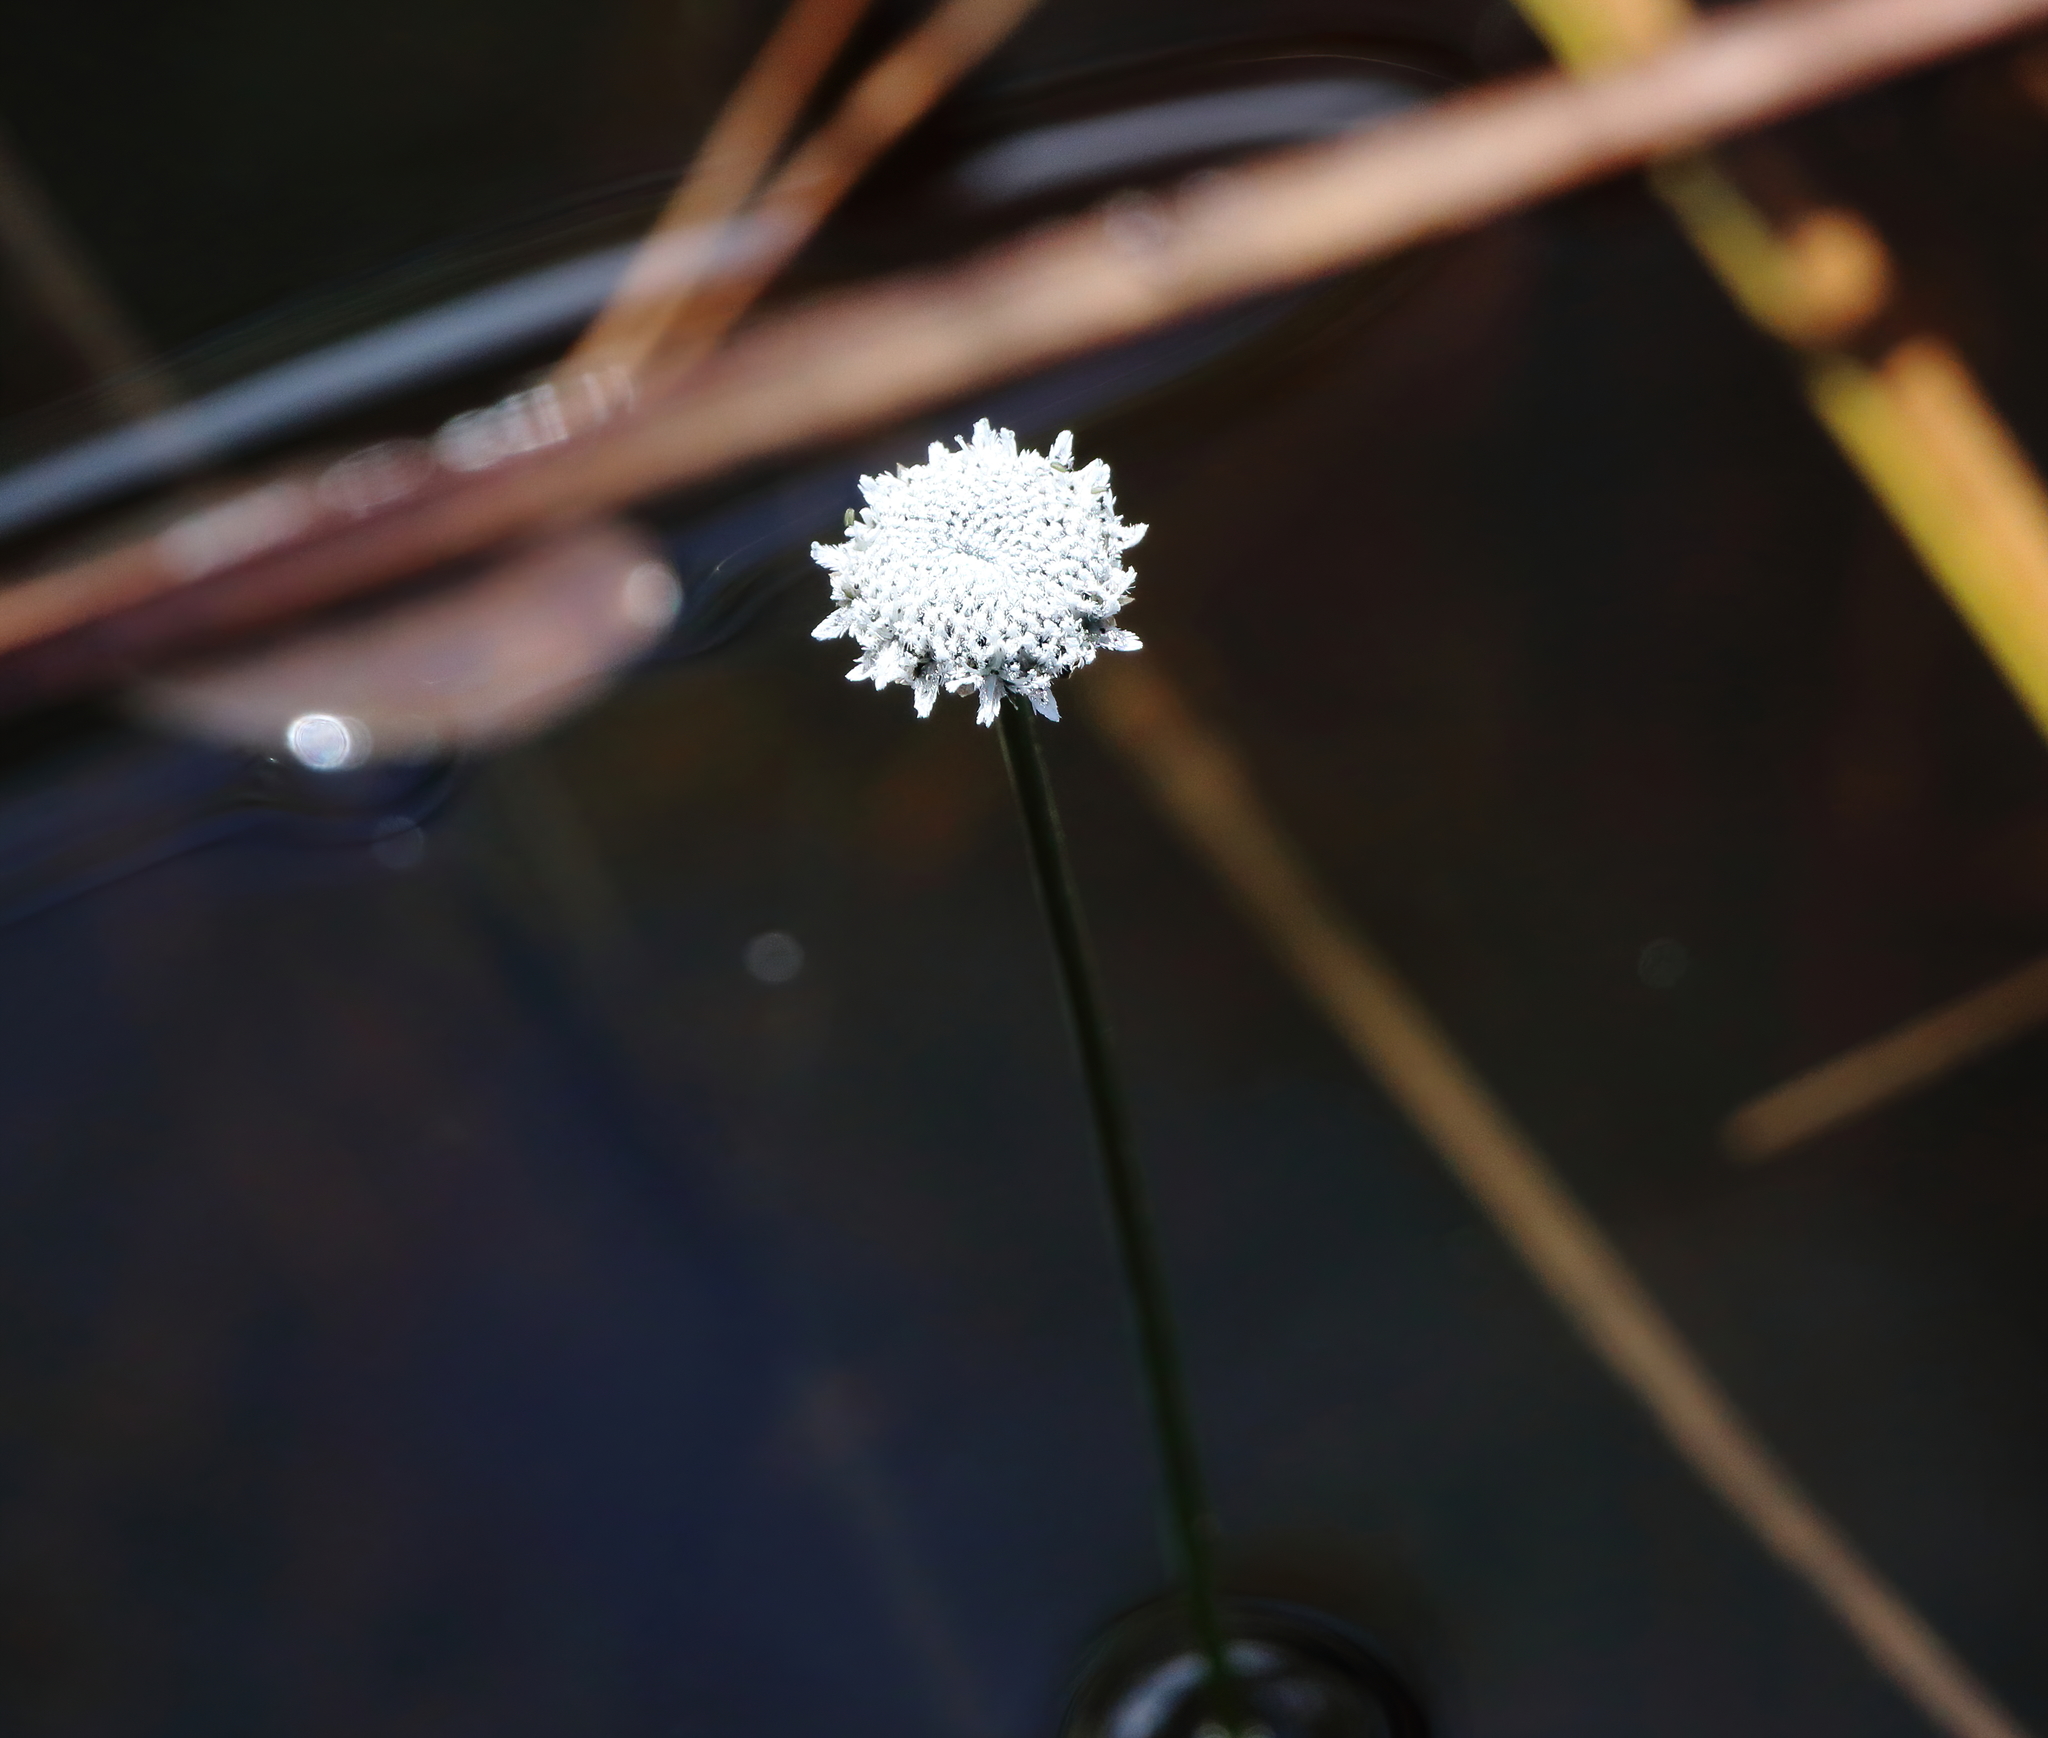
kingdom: Plantae
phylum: Tracheophyta
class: Liliopsida
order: Poales
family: Eriocaulaceae
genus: Eriocaulon
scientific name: Eriocaulon compressum
